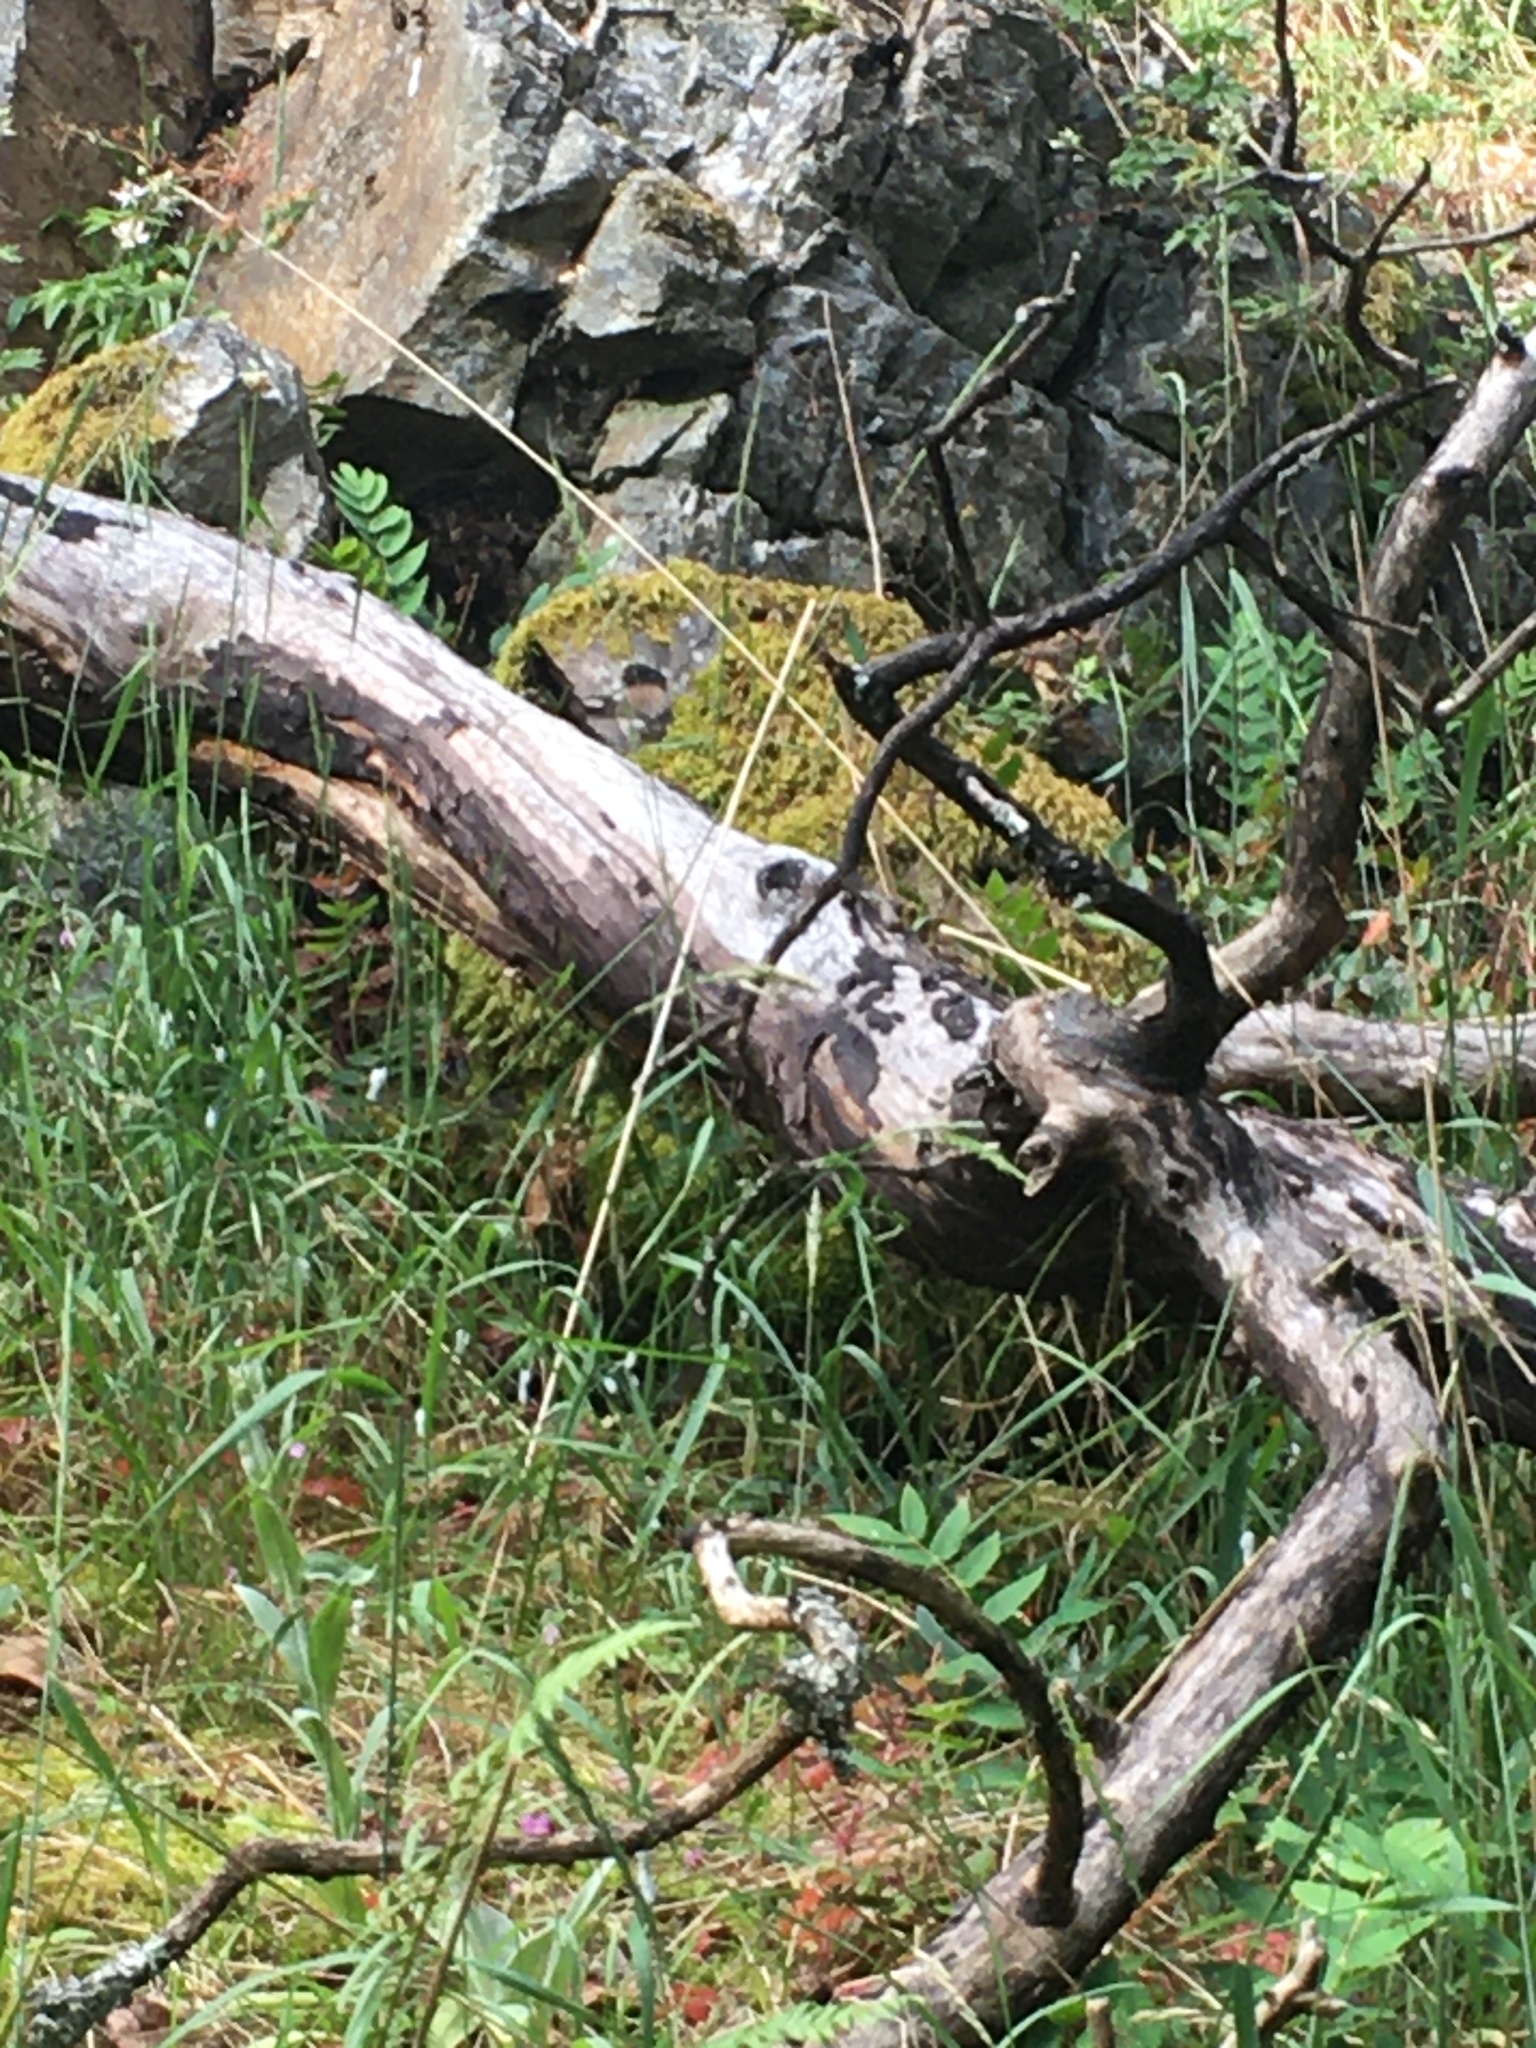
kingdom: Animalia
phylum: Chordata
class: Aves
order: Passeriformes
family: Passerellidae
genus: Junco
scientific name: Junco hyemalis
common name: Dark-eyed junco
